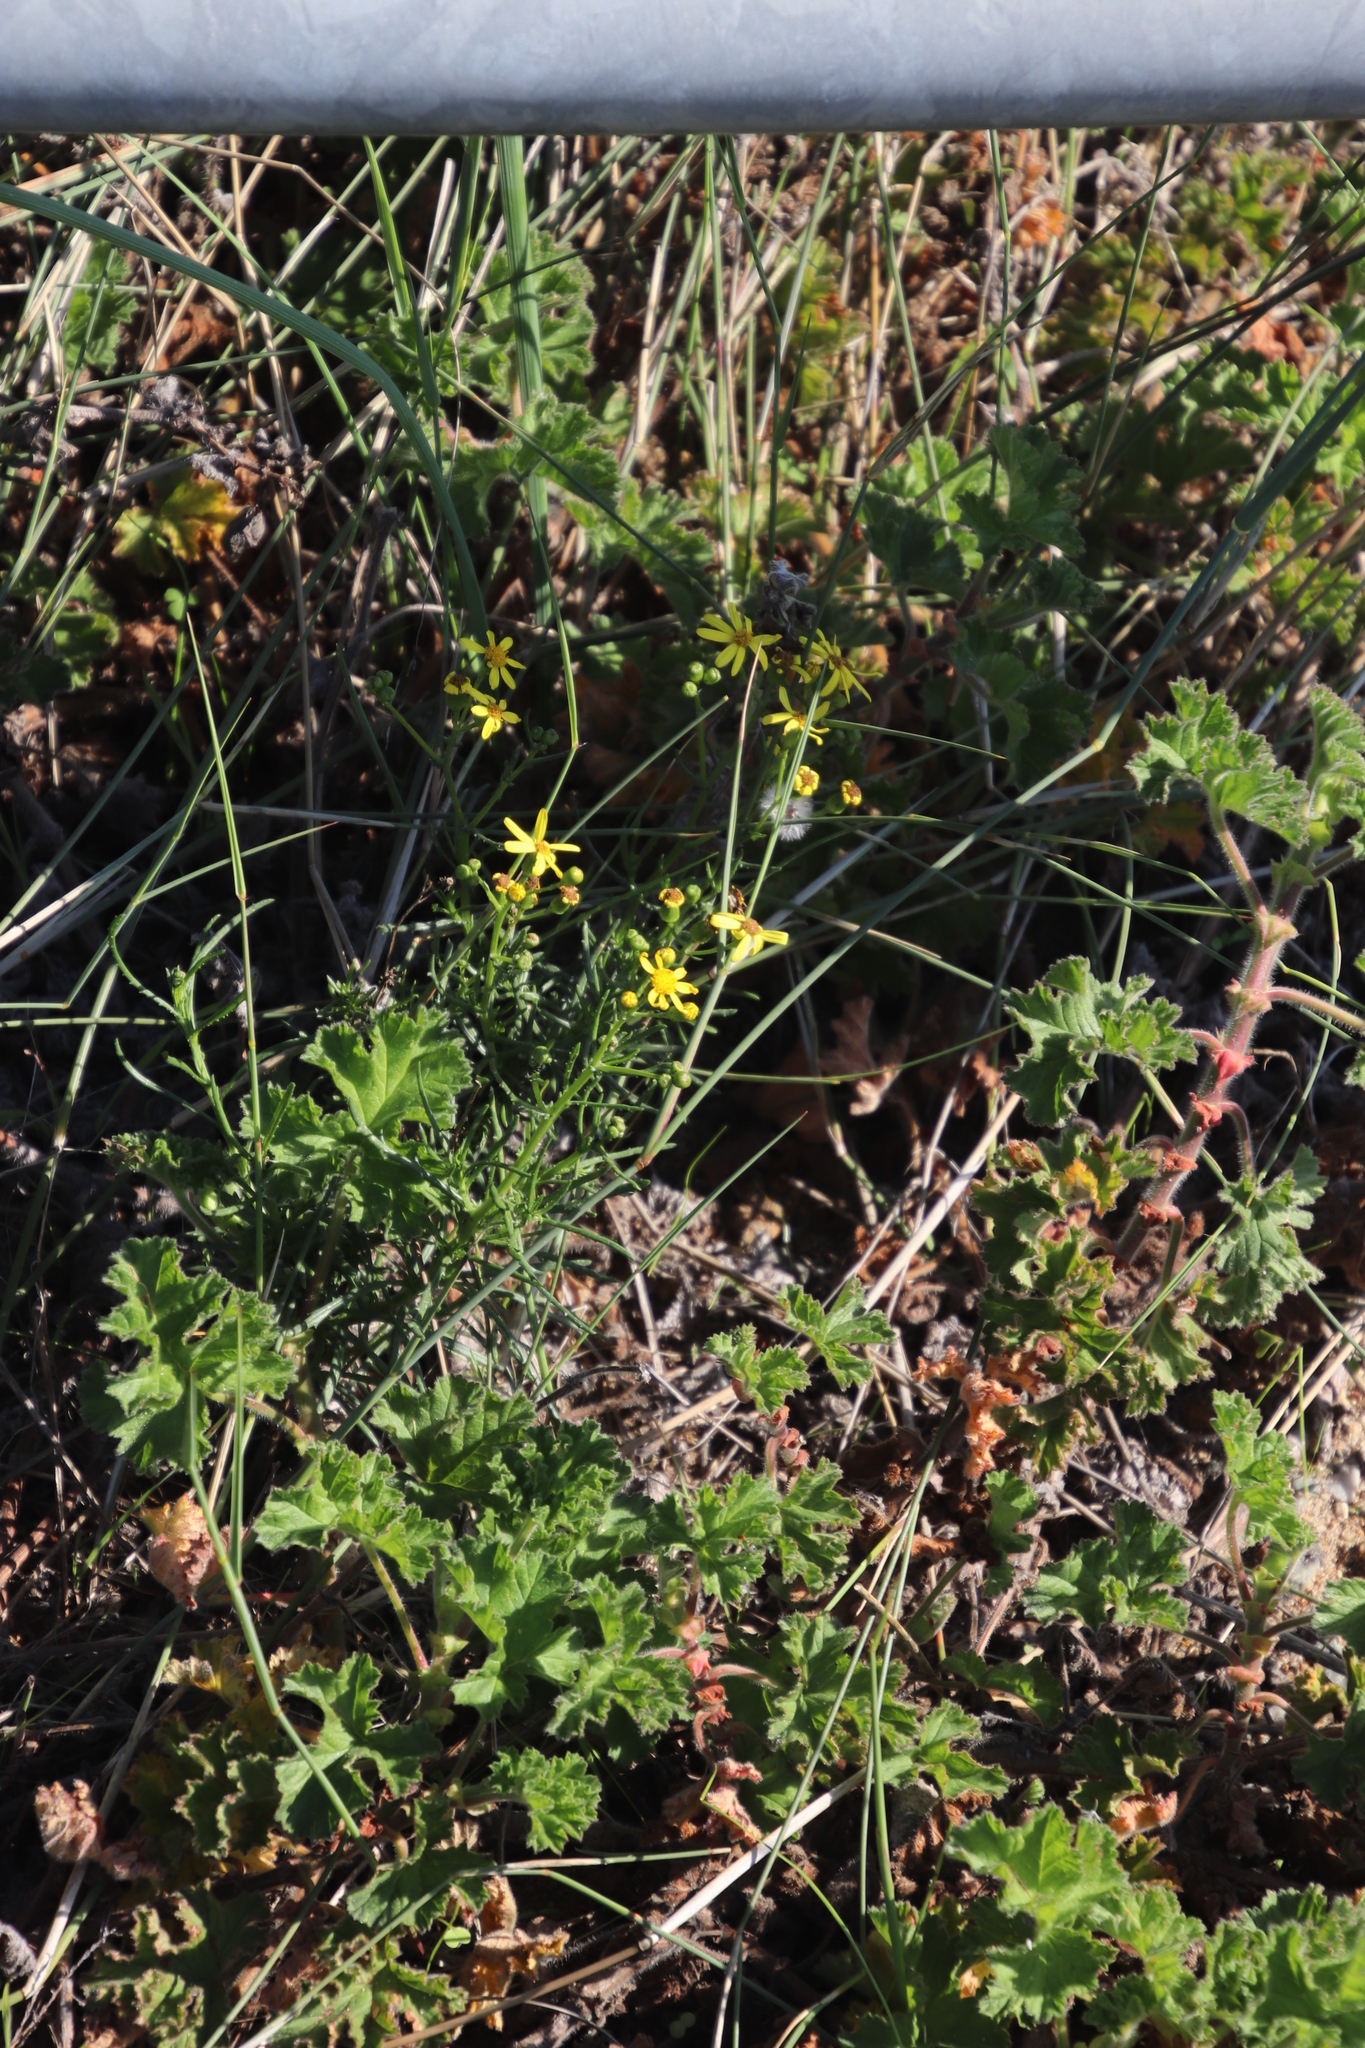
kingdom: Plantae
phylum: Tracheophyta
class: Magnoliopsida
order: Asterales
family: Asteraceae
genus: Senecio
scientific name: Senecio burchellii
